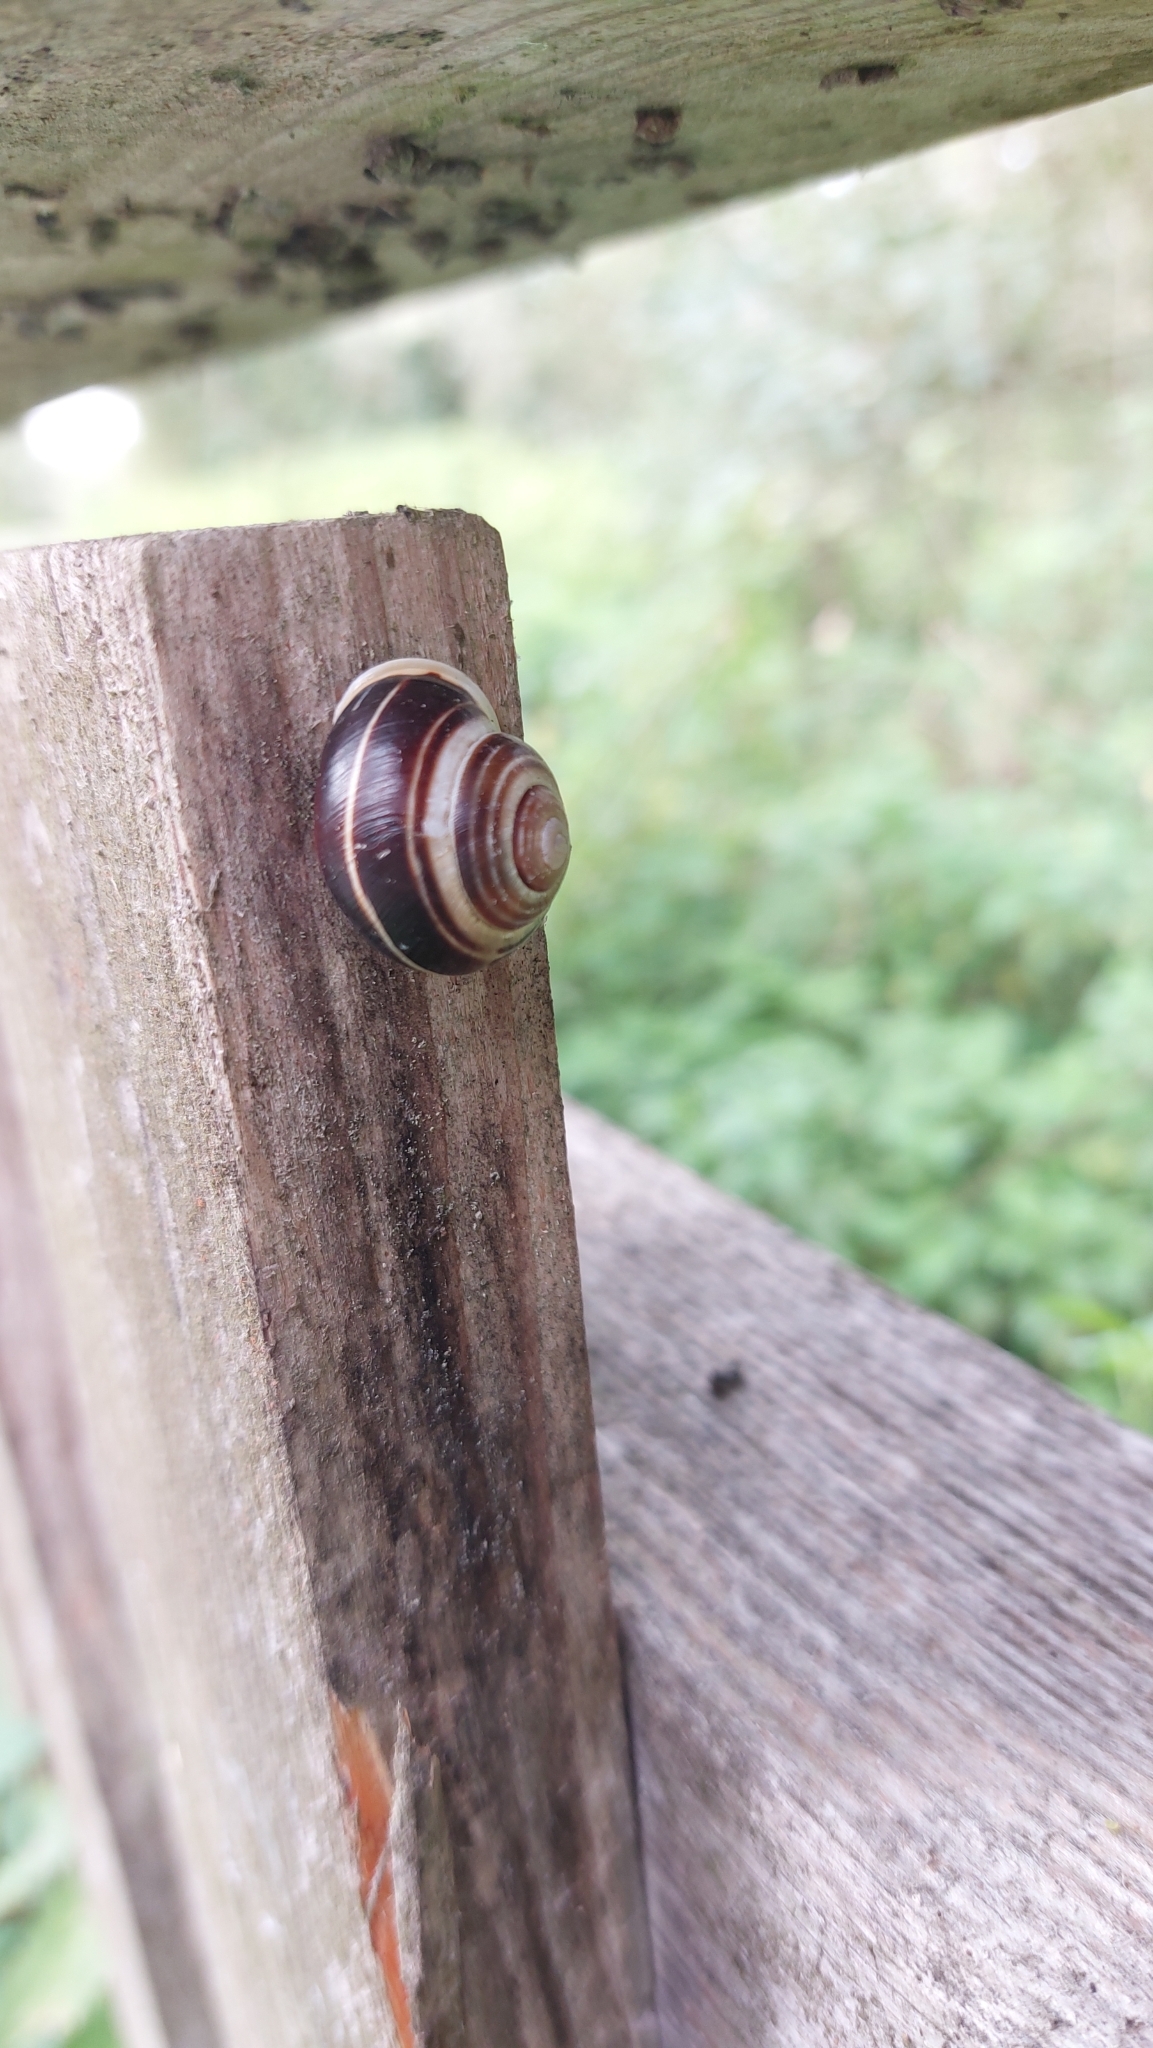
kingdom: Animalia
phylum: Mollusca
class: Gastropoda
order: Stylommatophora
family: Helicidae
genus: Cepaea
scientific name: Cepaea hortensis
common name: White-lip gardensnail
